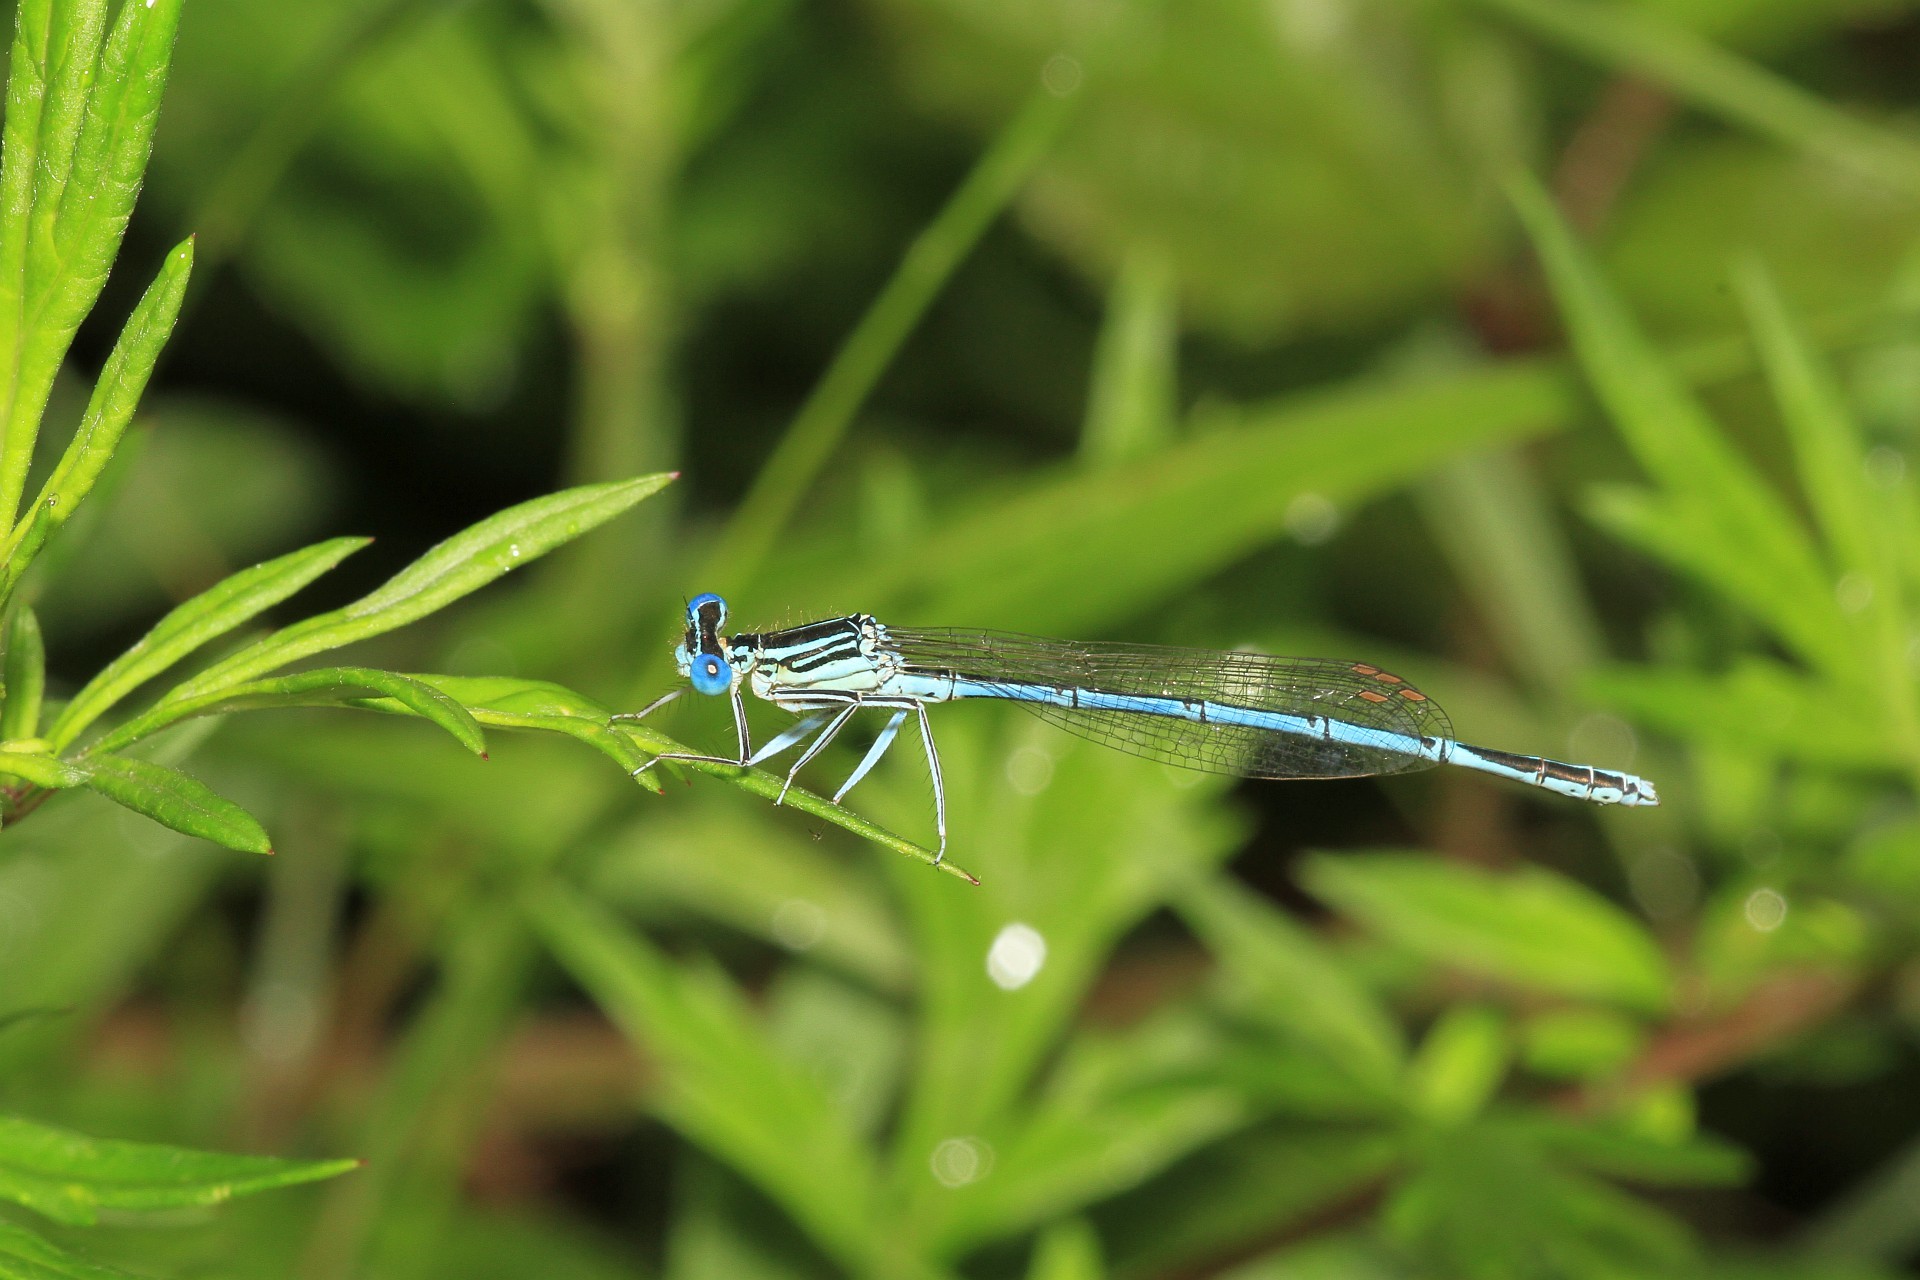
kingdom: Animalia
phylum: Arthropoda
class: Insecta
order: Odonata
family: Platycnemididae
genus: Platycnemis
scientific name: Platycnemis pennipes
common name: White-legged damselfly
